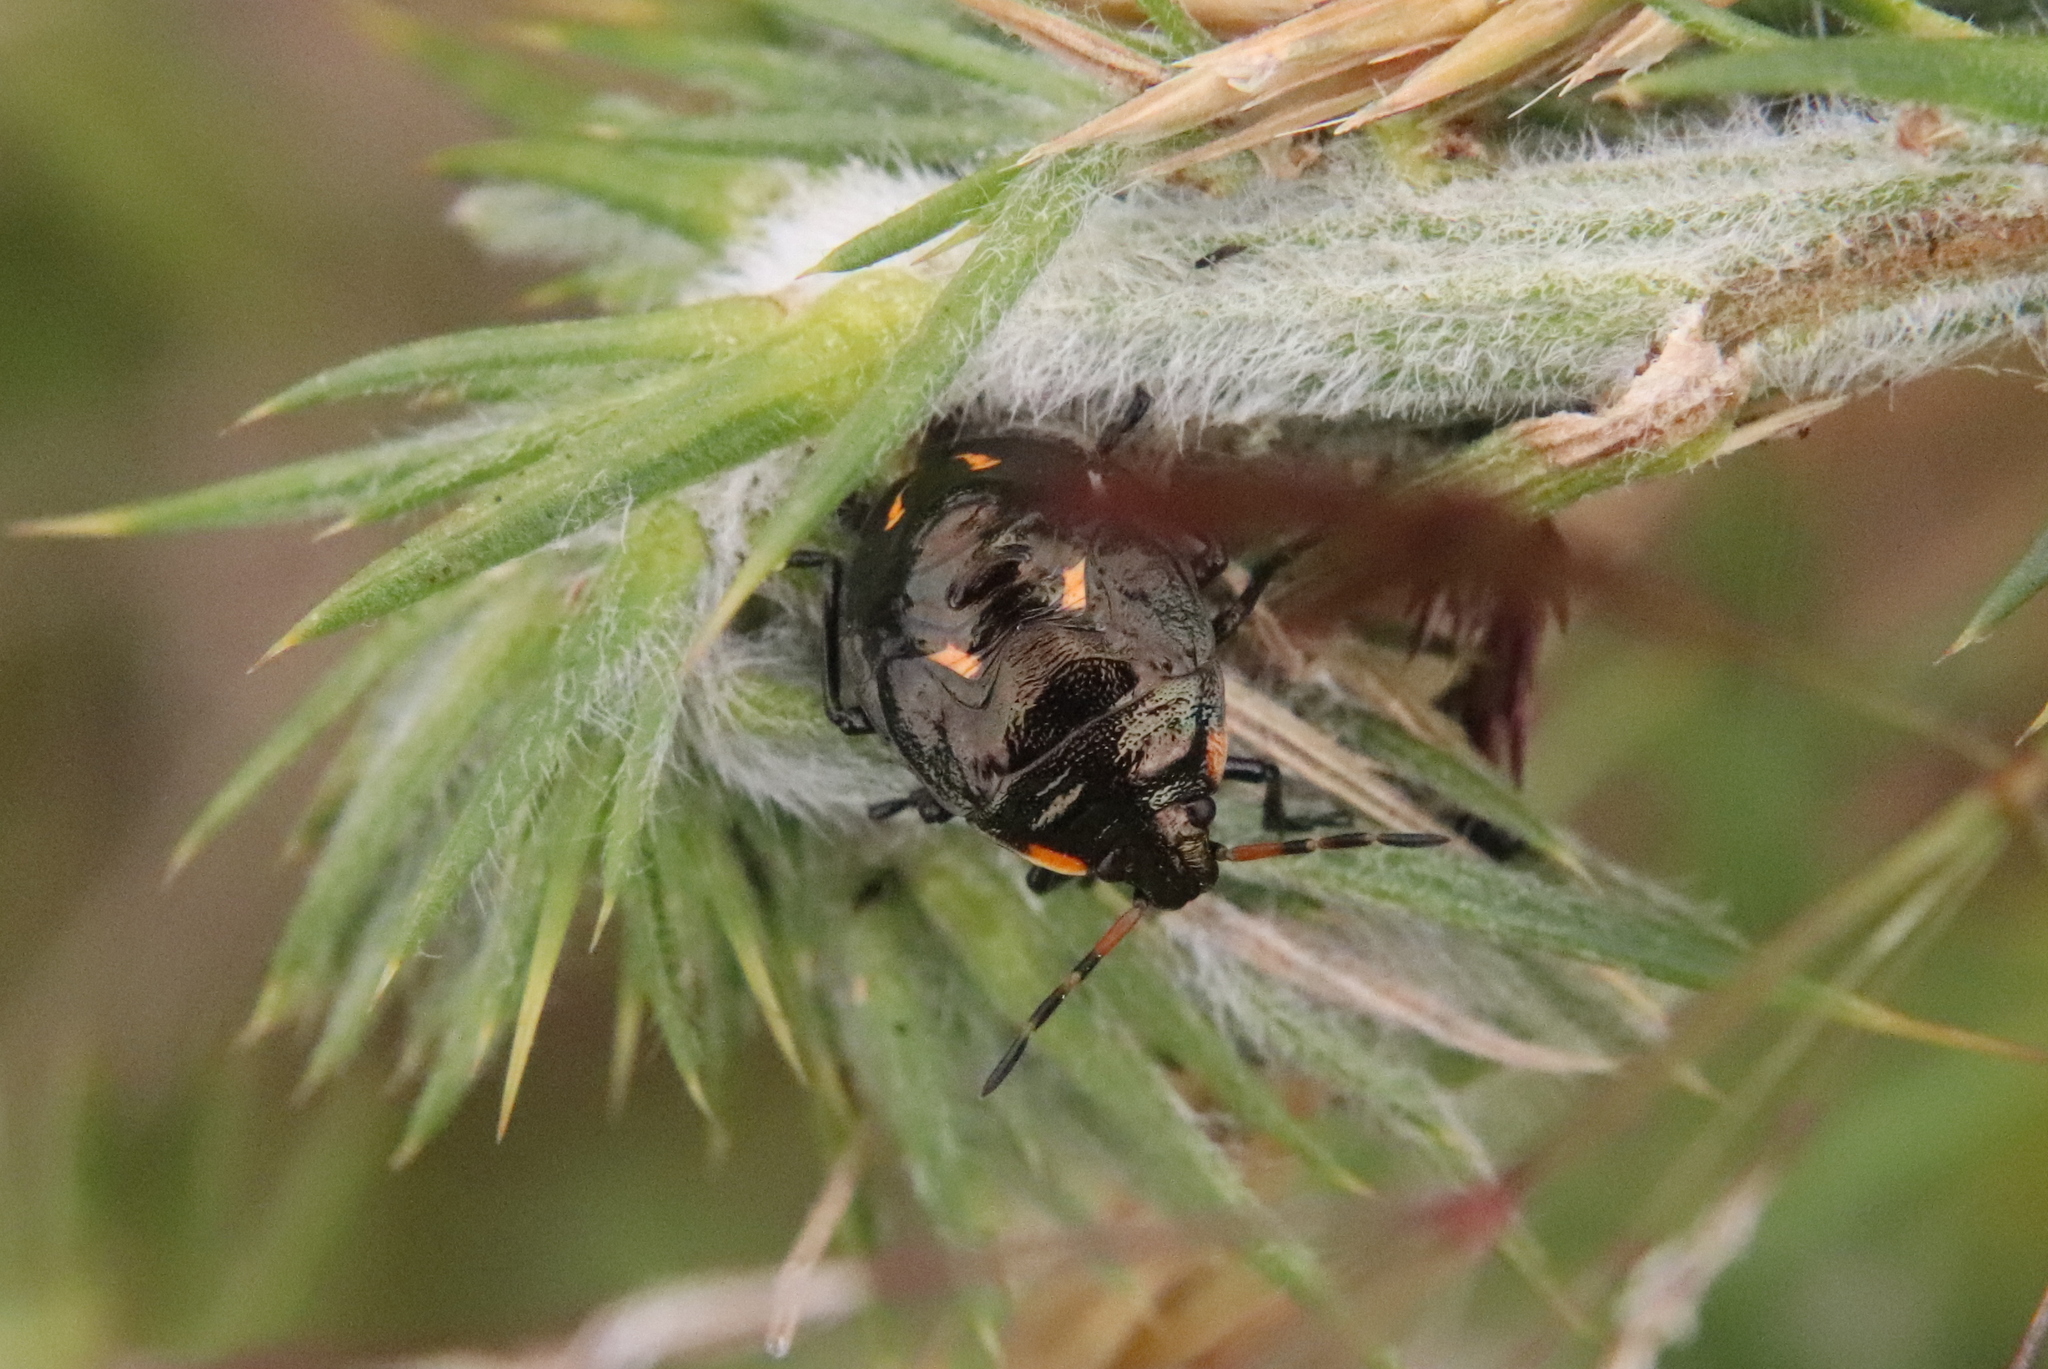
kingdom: Animalia
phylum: Arthropoda
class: Insecta
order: Hemiptera
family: Pentatomidae
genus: Cermatulus
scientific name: Cermatulus nasalis
